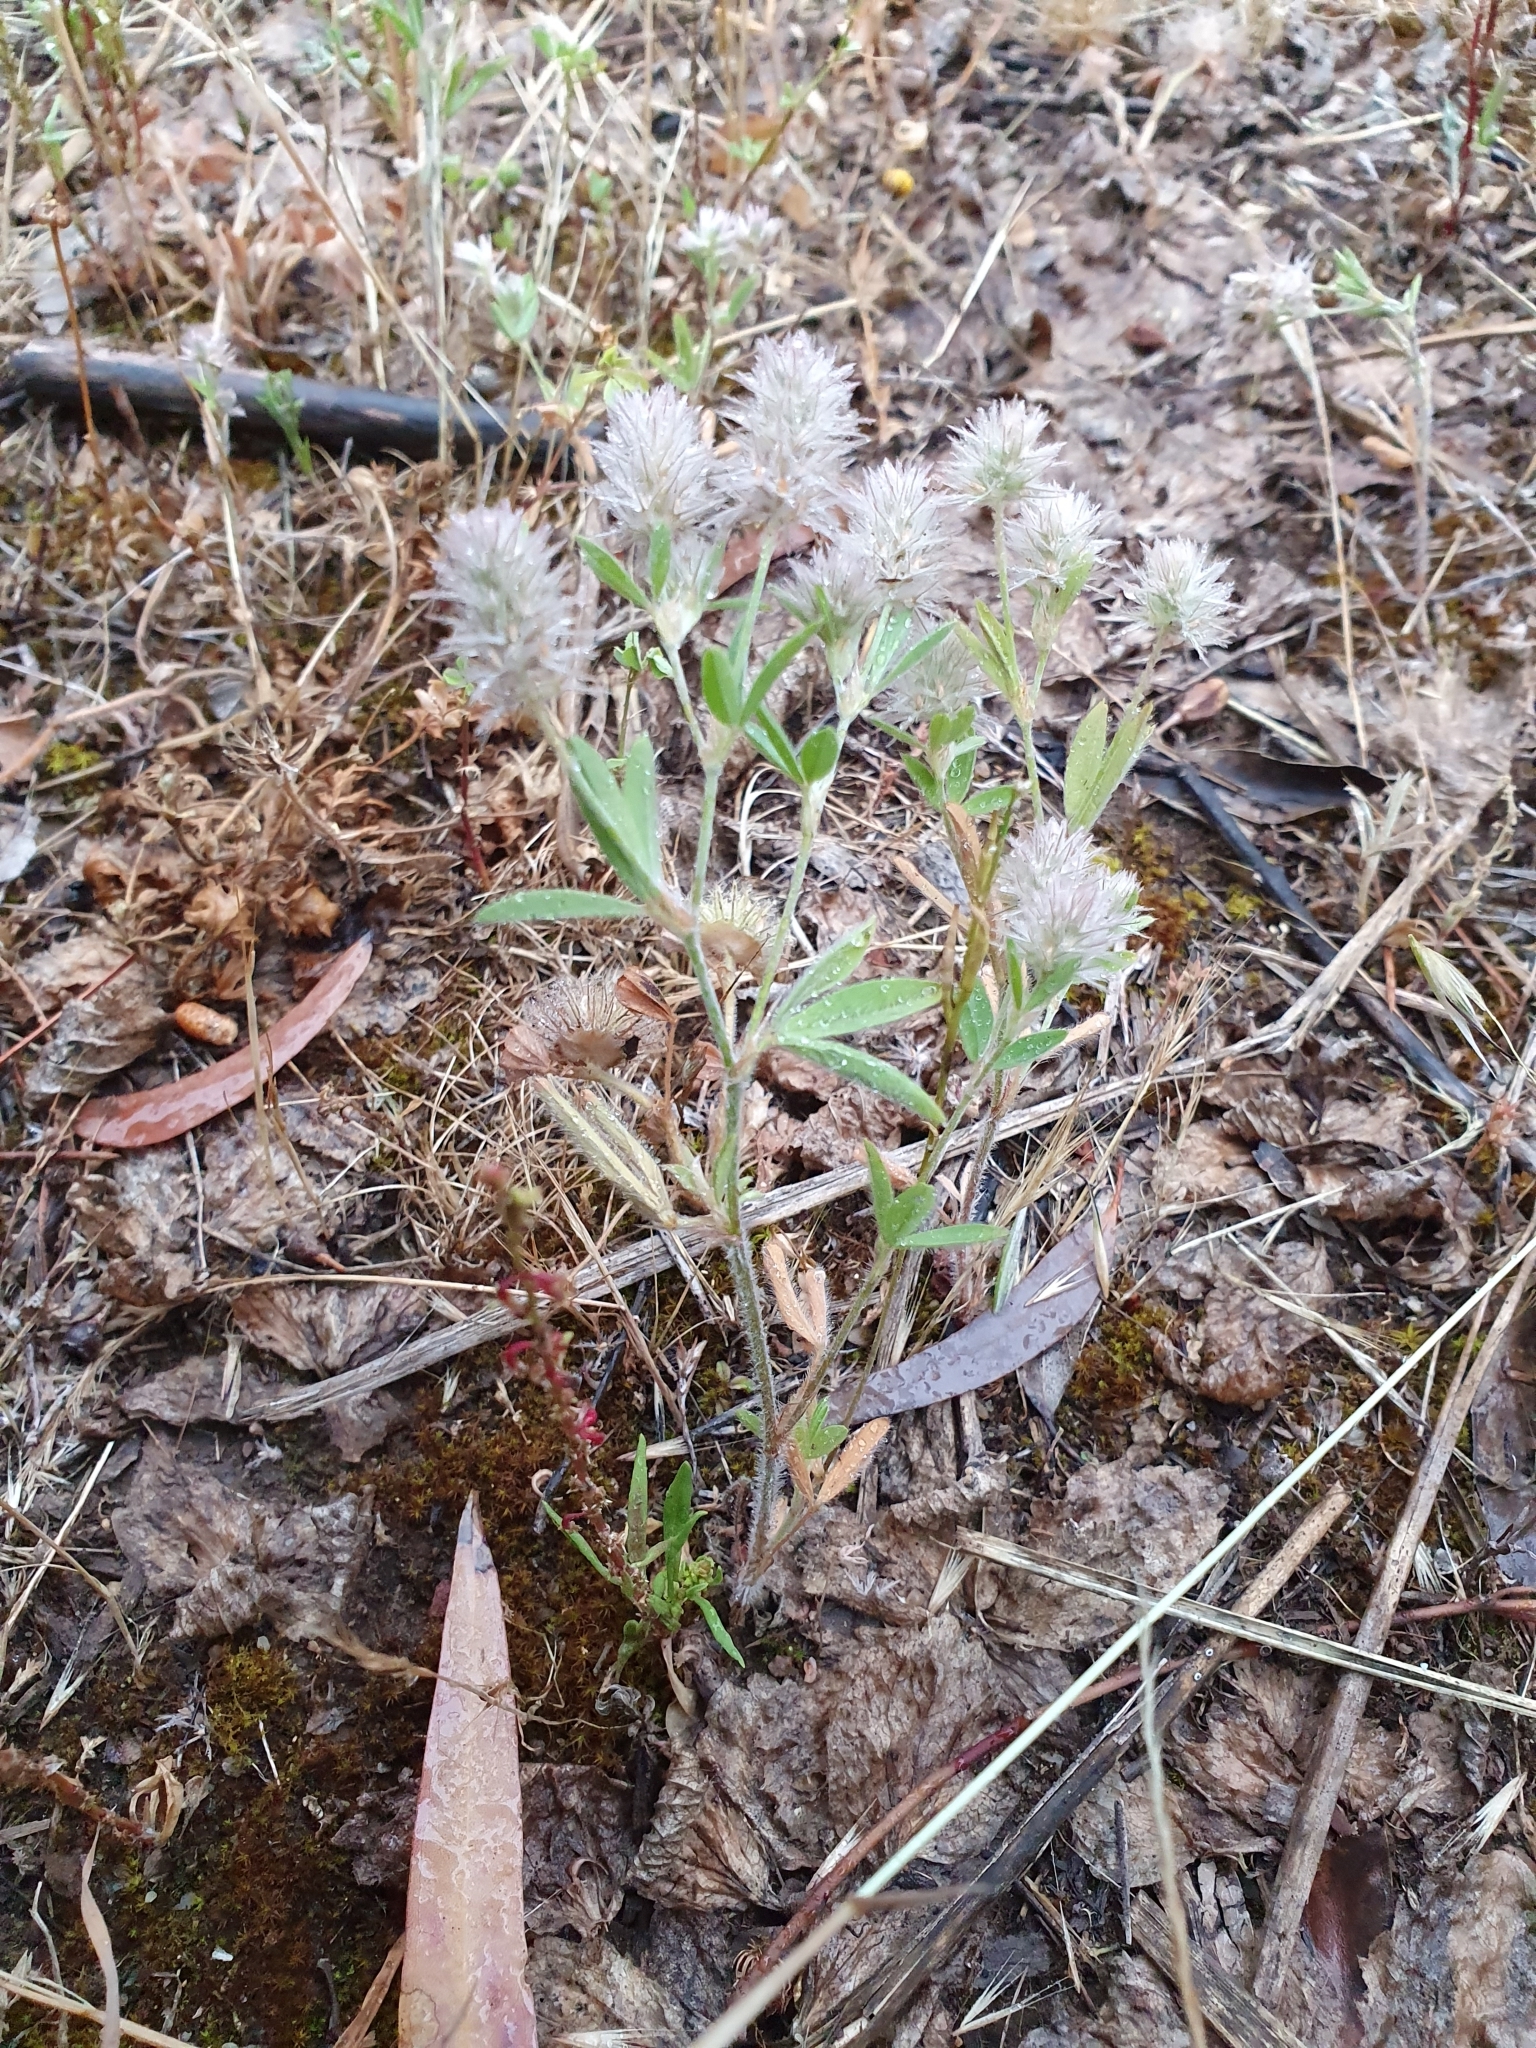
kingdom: Plantae
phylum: Tracheophyta
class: Magnoliopsida
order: Fabales
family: Fabaceae
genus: Trifolium
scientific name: Trifolium arvense
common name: Hare's-foot clover
